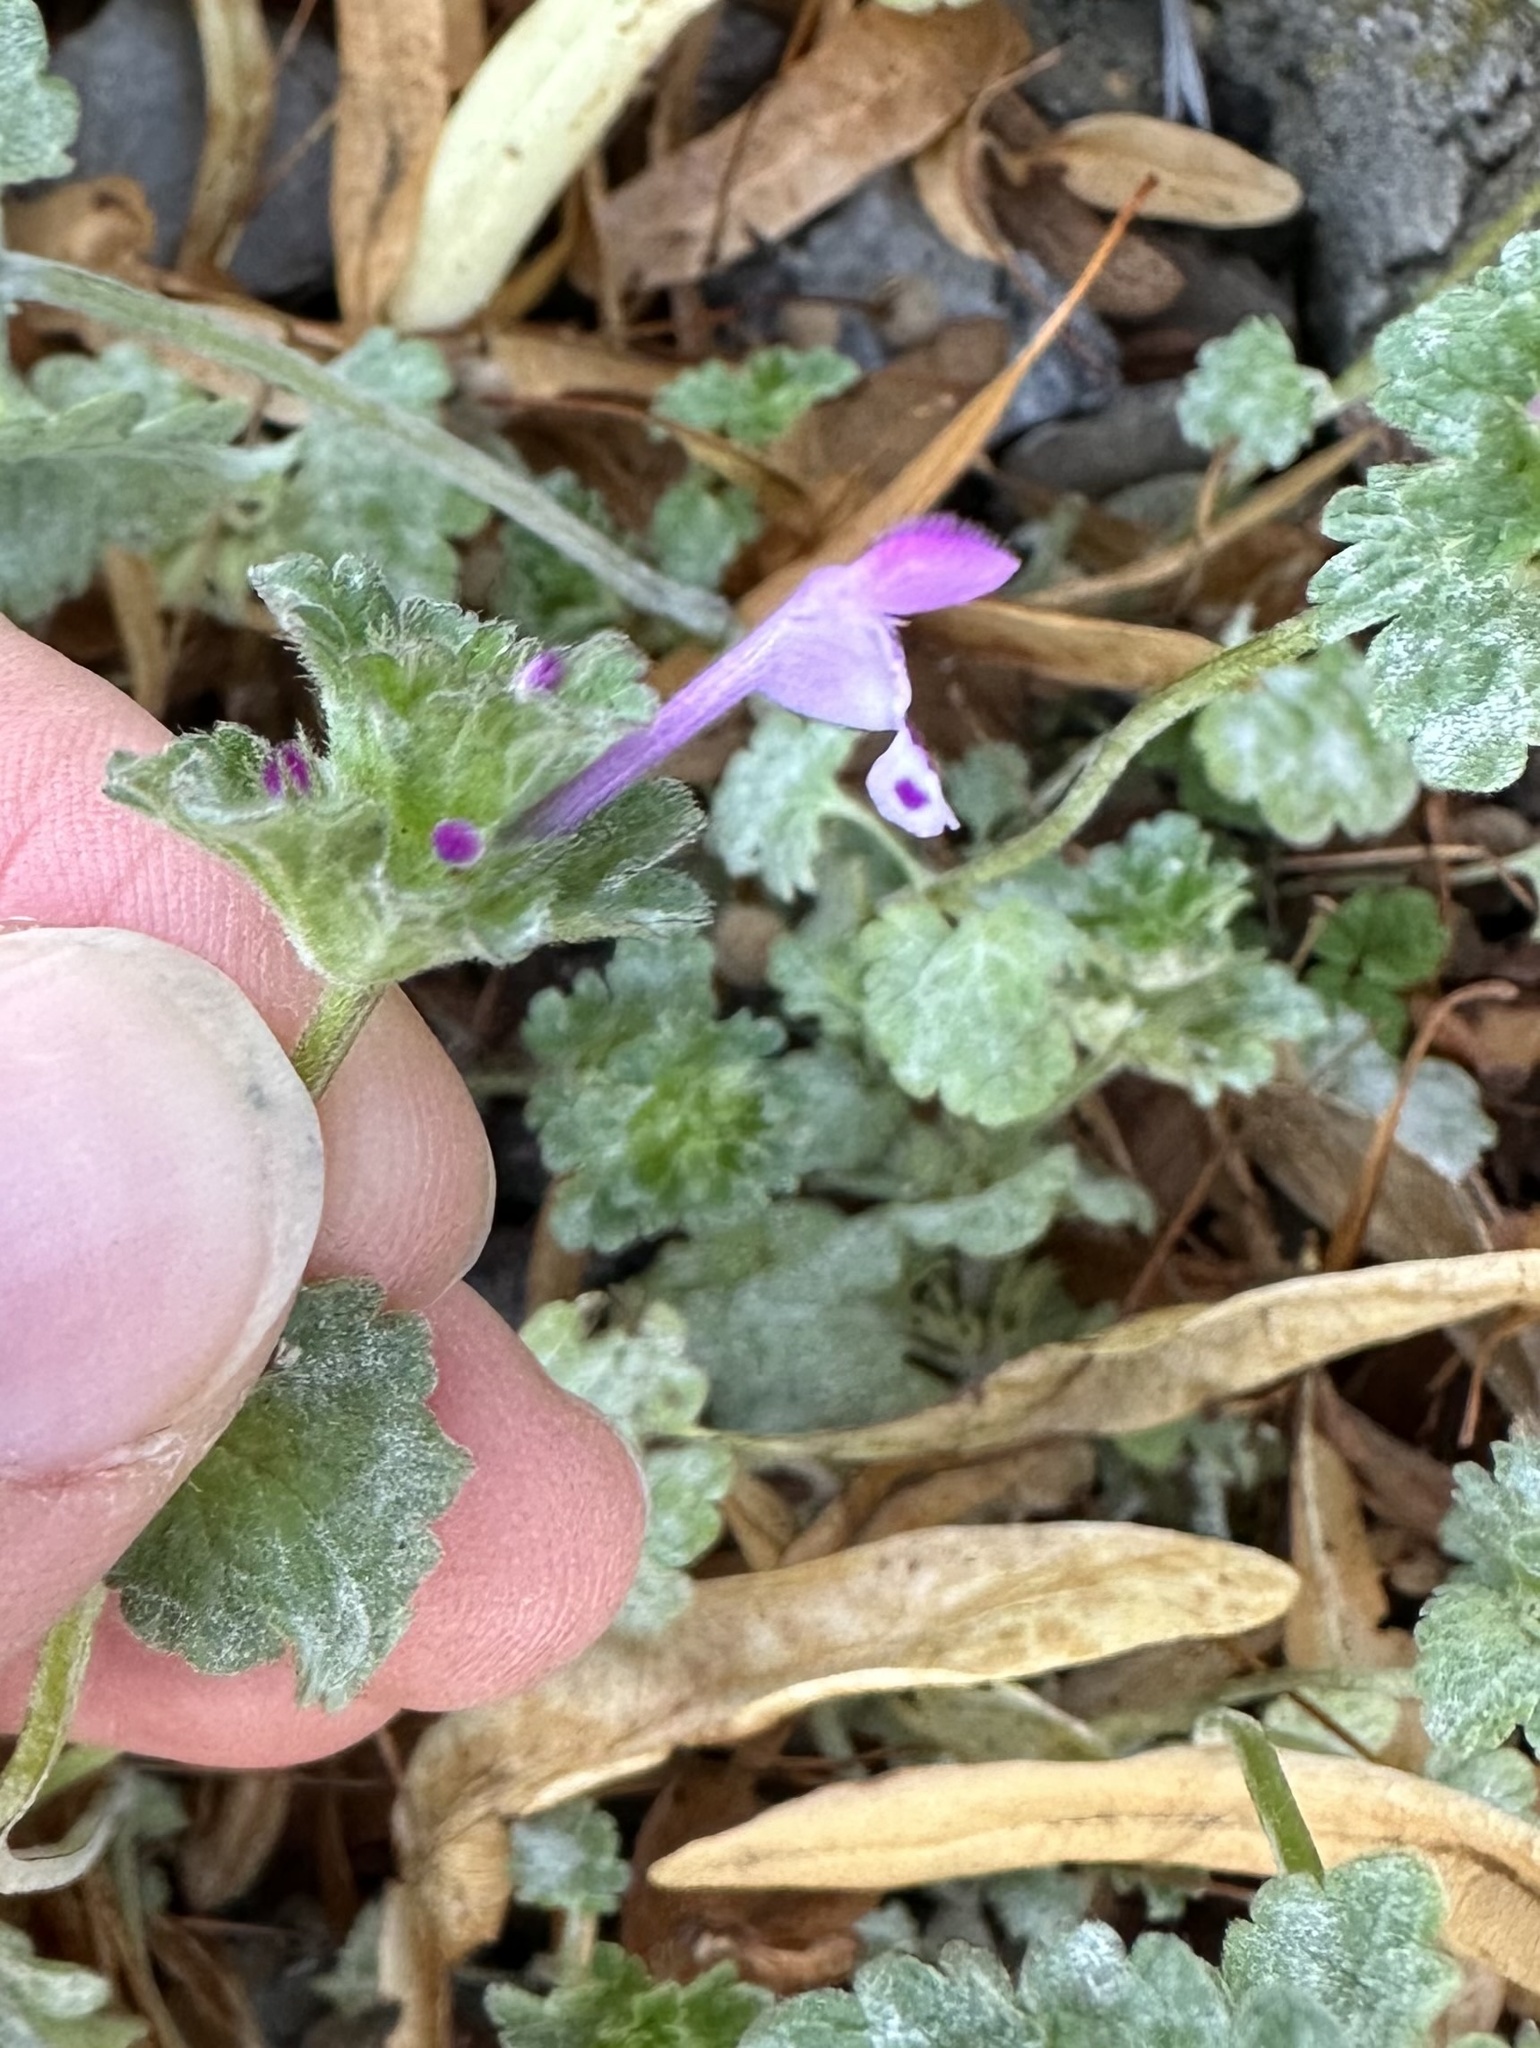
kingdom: Plantae
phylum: Tracheophyta
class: Magnoliopsida
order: Lamiales
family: Lamiaceae
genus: Lamium
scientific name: Lamium amplexicaule
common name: Henbit dead-nettle
